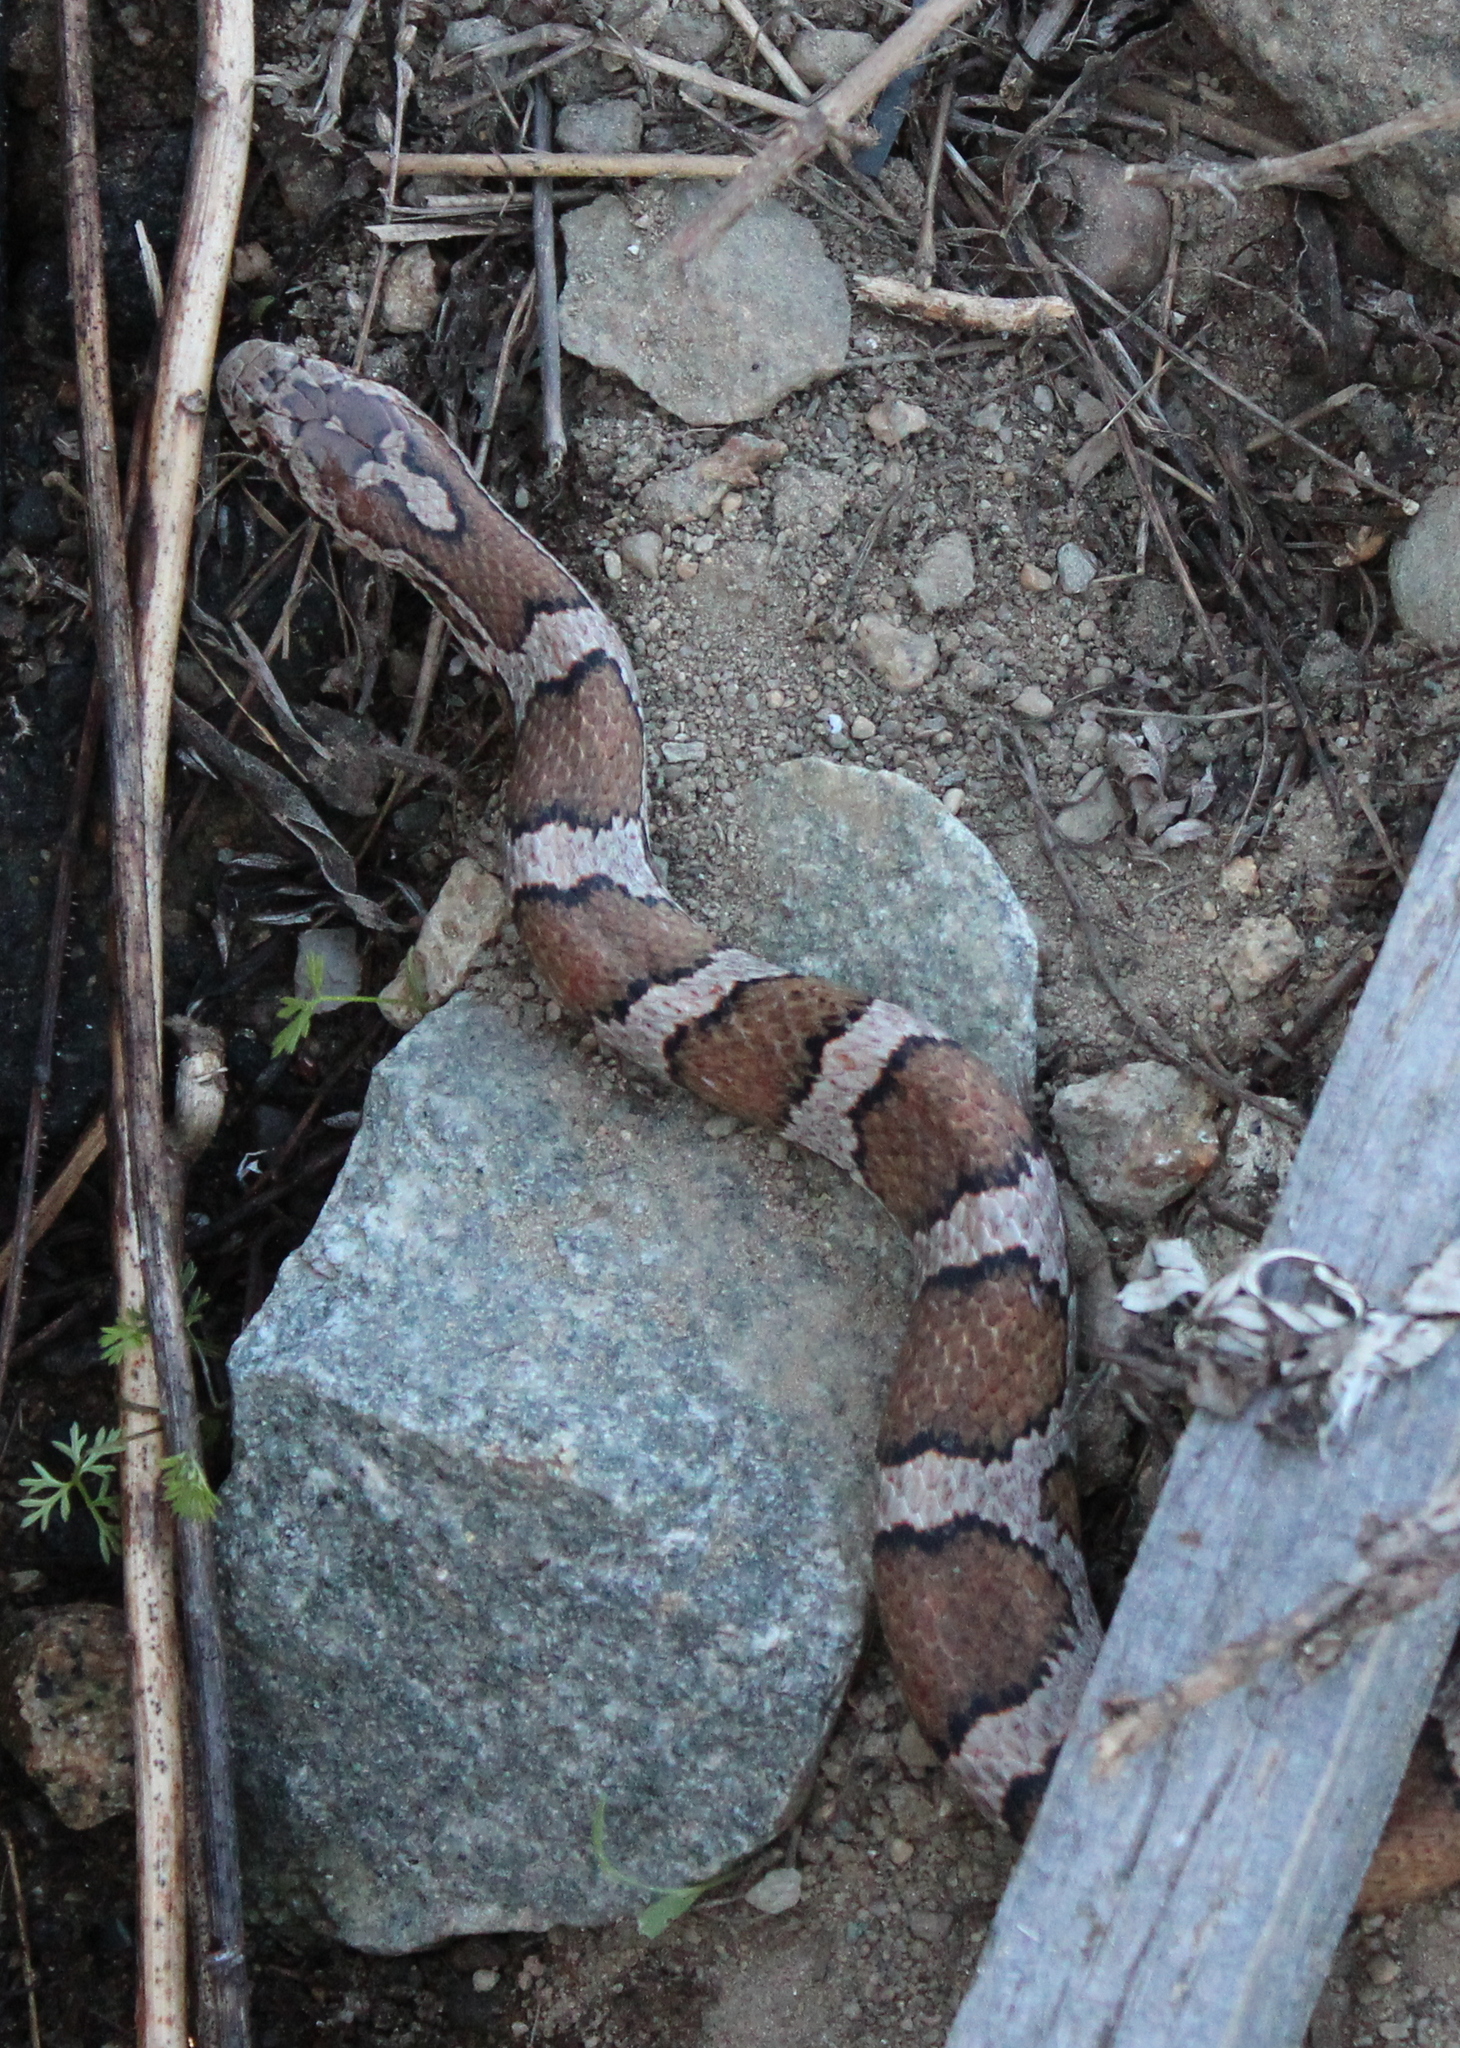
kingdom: Animalia
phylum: Chordata
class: Squamata
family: Colubridae
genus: Lampropeltis
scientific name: Lampropeltis triangulum
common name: Eastern milksnake
